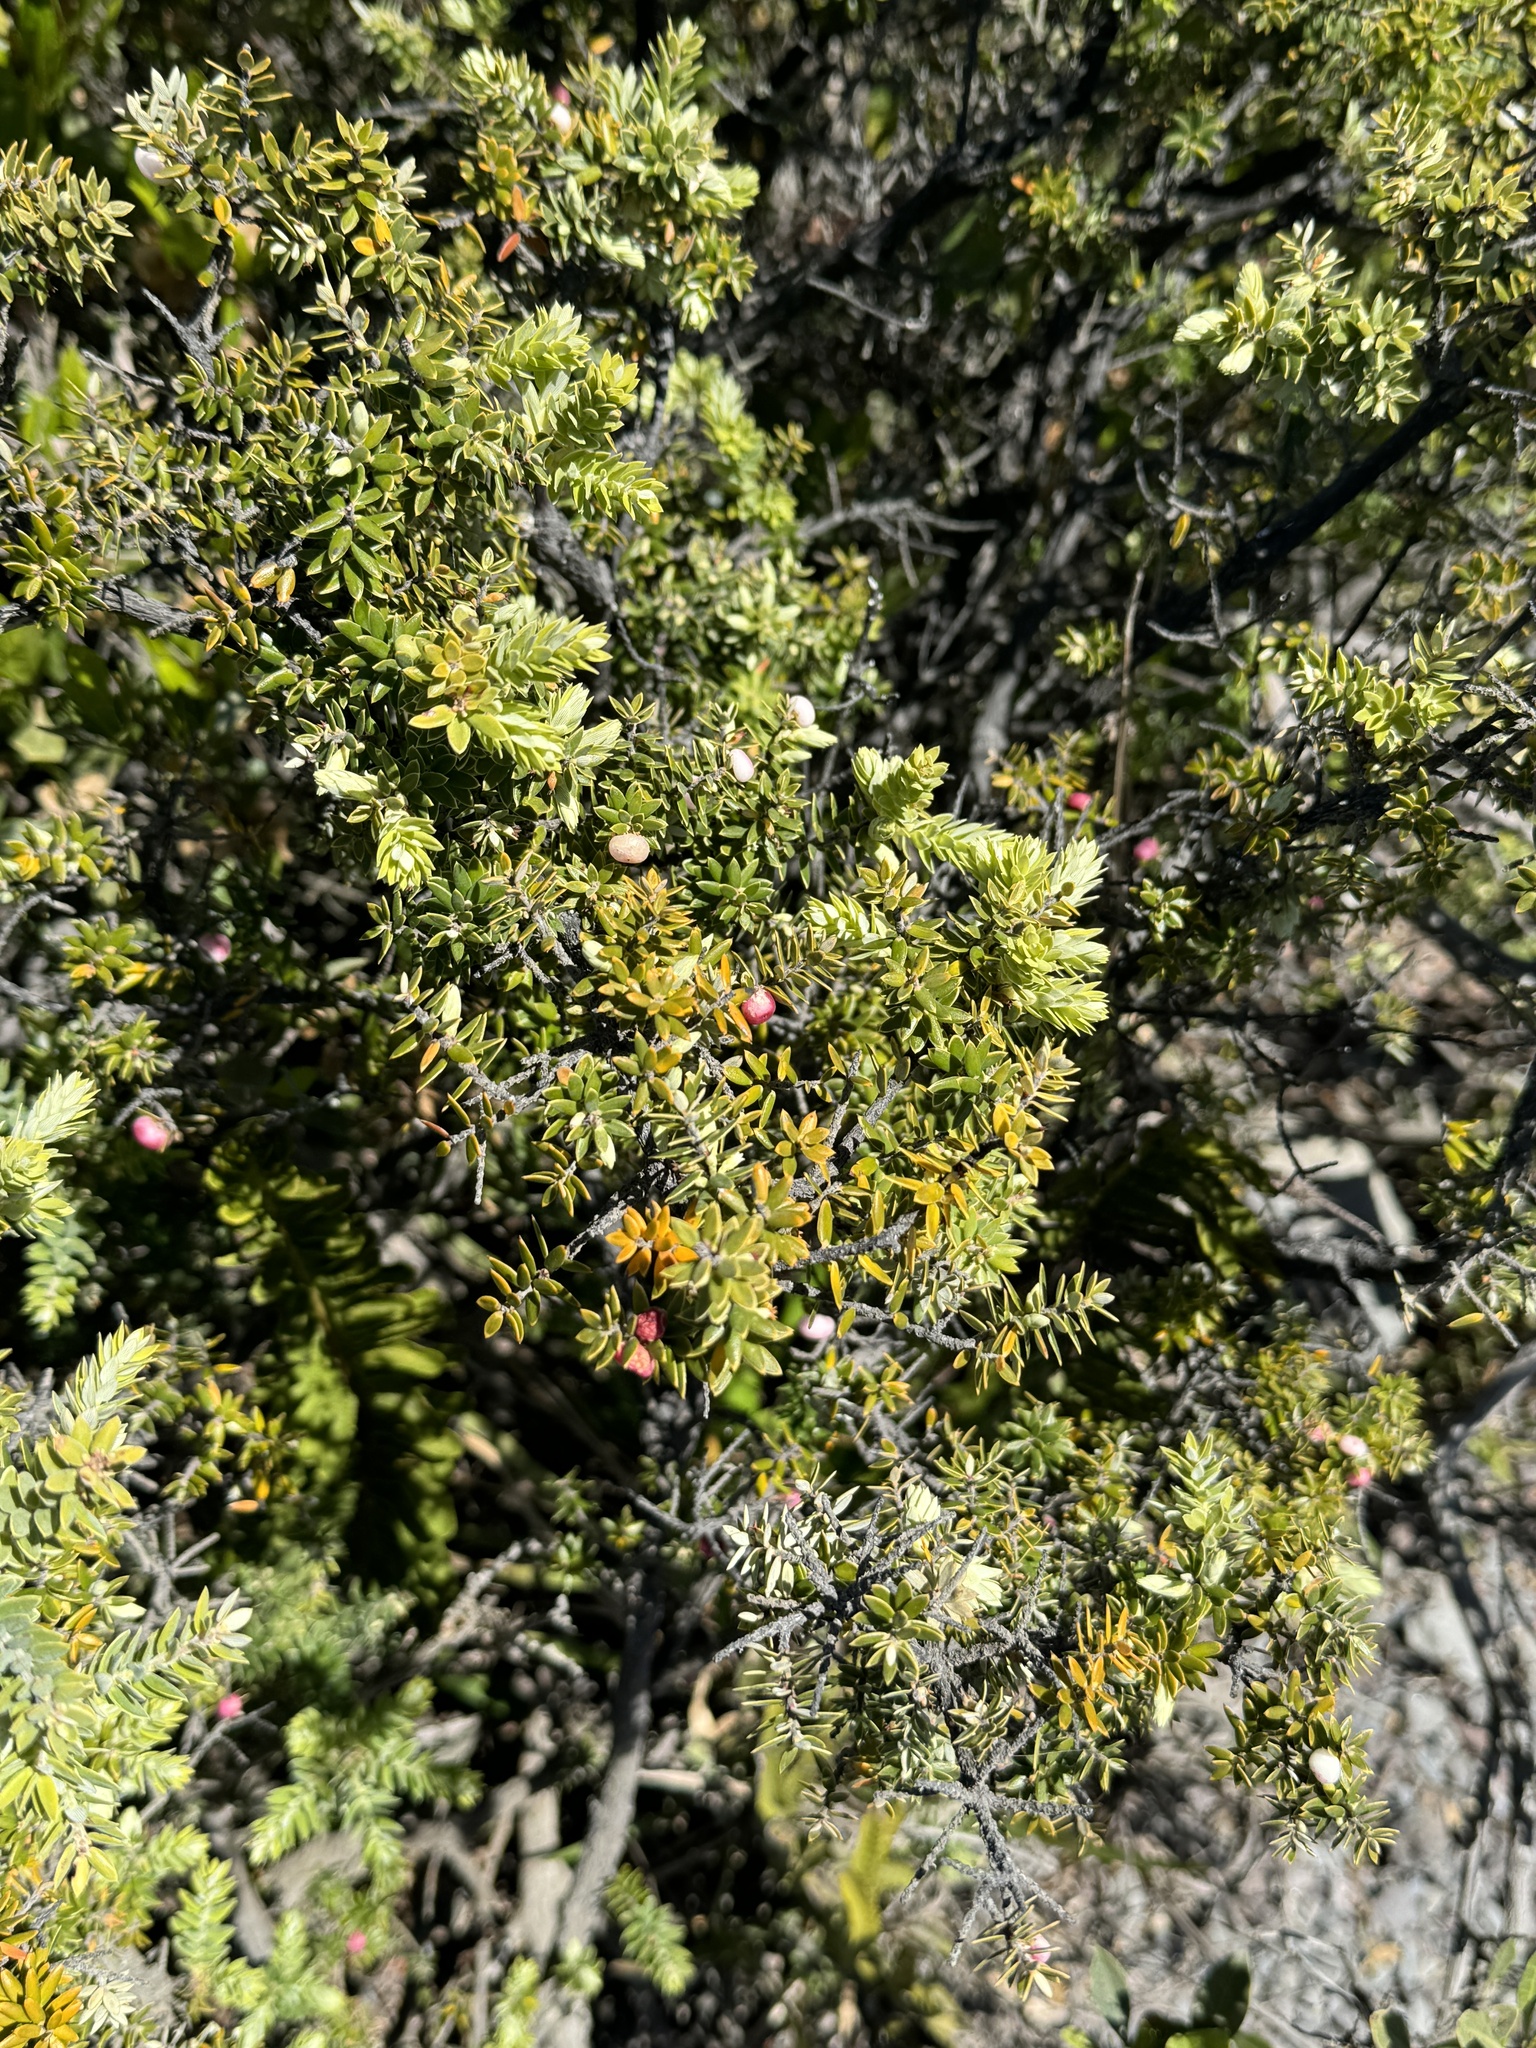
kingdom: Plantae
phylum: Tracheophyta
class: Magnoliopsida
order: Ericales
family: Ericaceae
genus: Leptecophylla
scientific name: Leptecophylla tameiameiae
